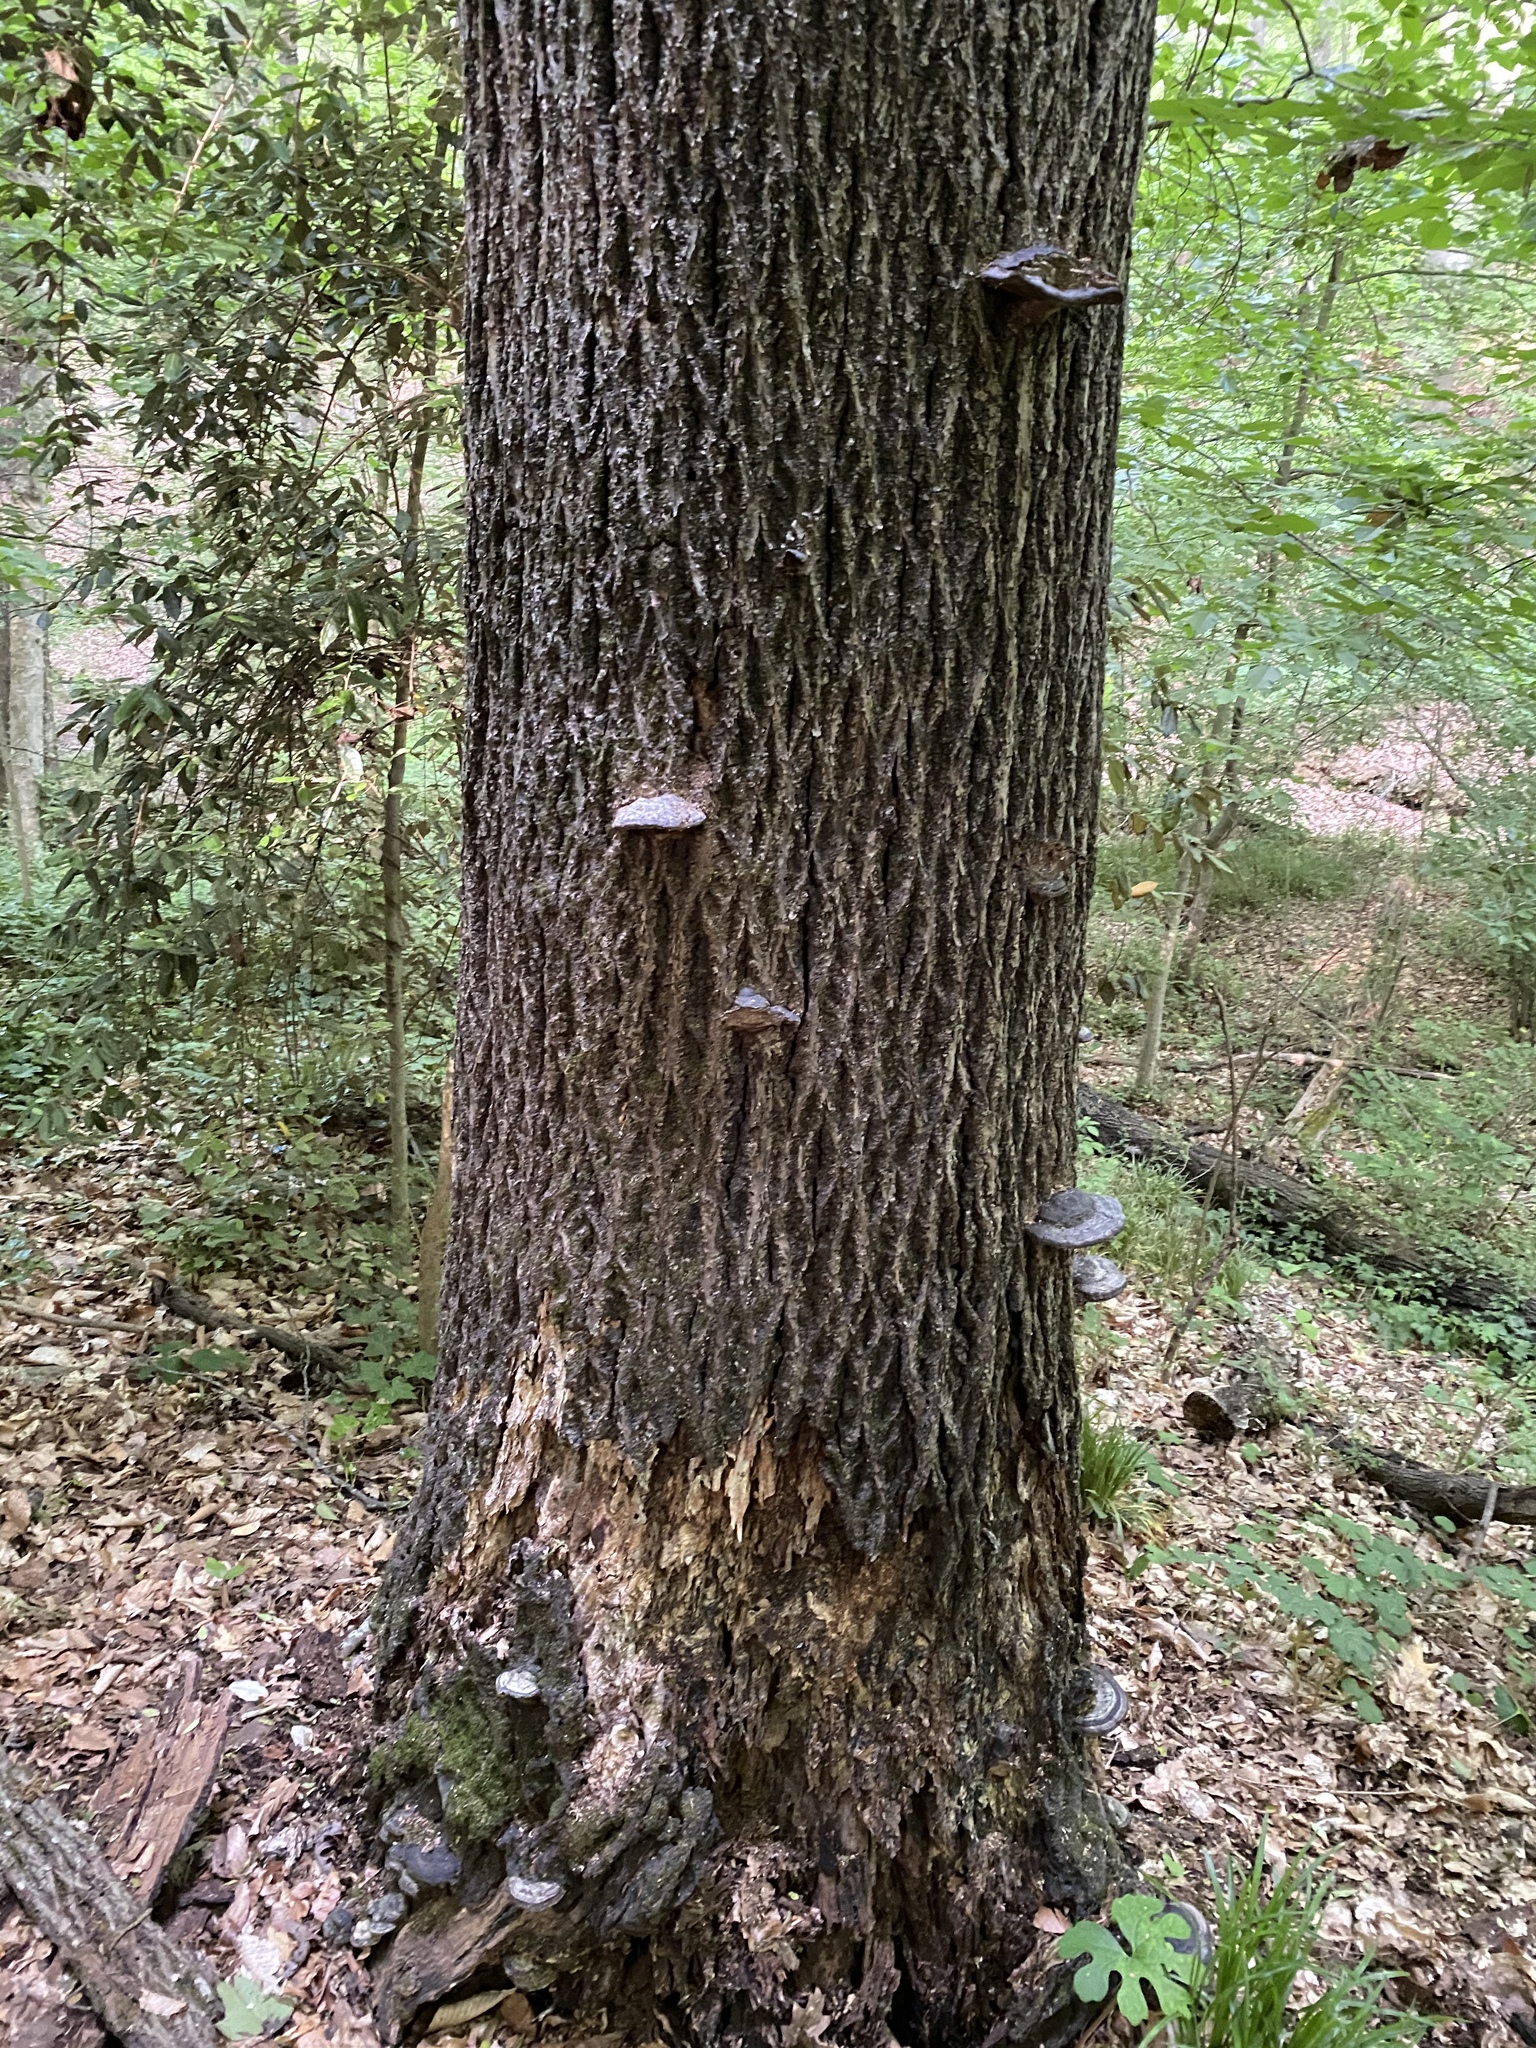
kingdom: Fungi
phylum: Basidiomycota
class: Agaricomycetes
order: Polyporales
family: Polyporaceae
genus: Fomes
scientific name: Fomes fasciatus
